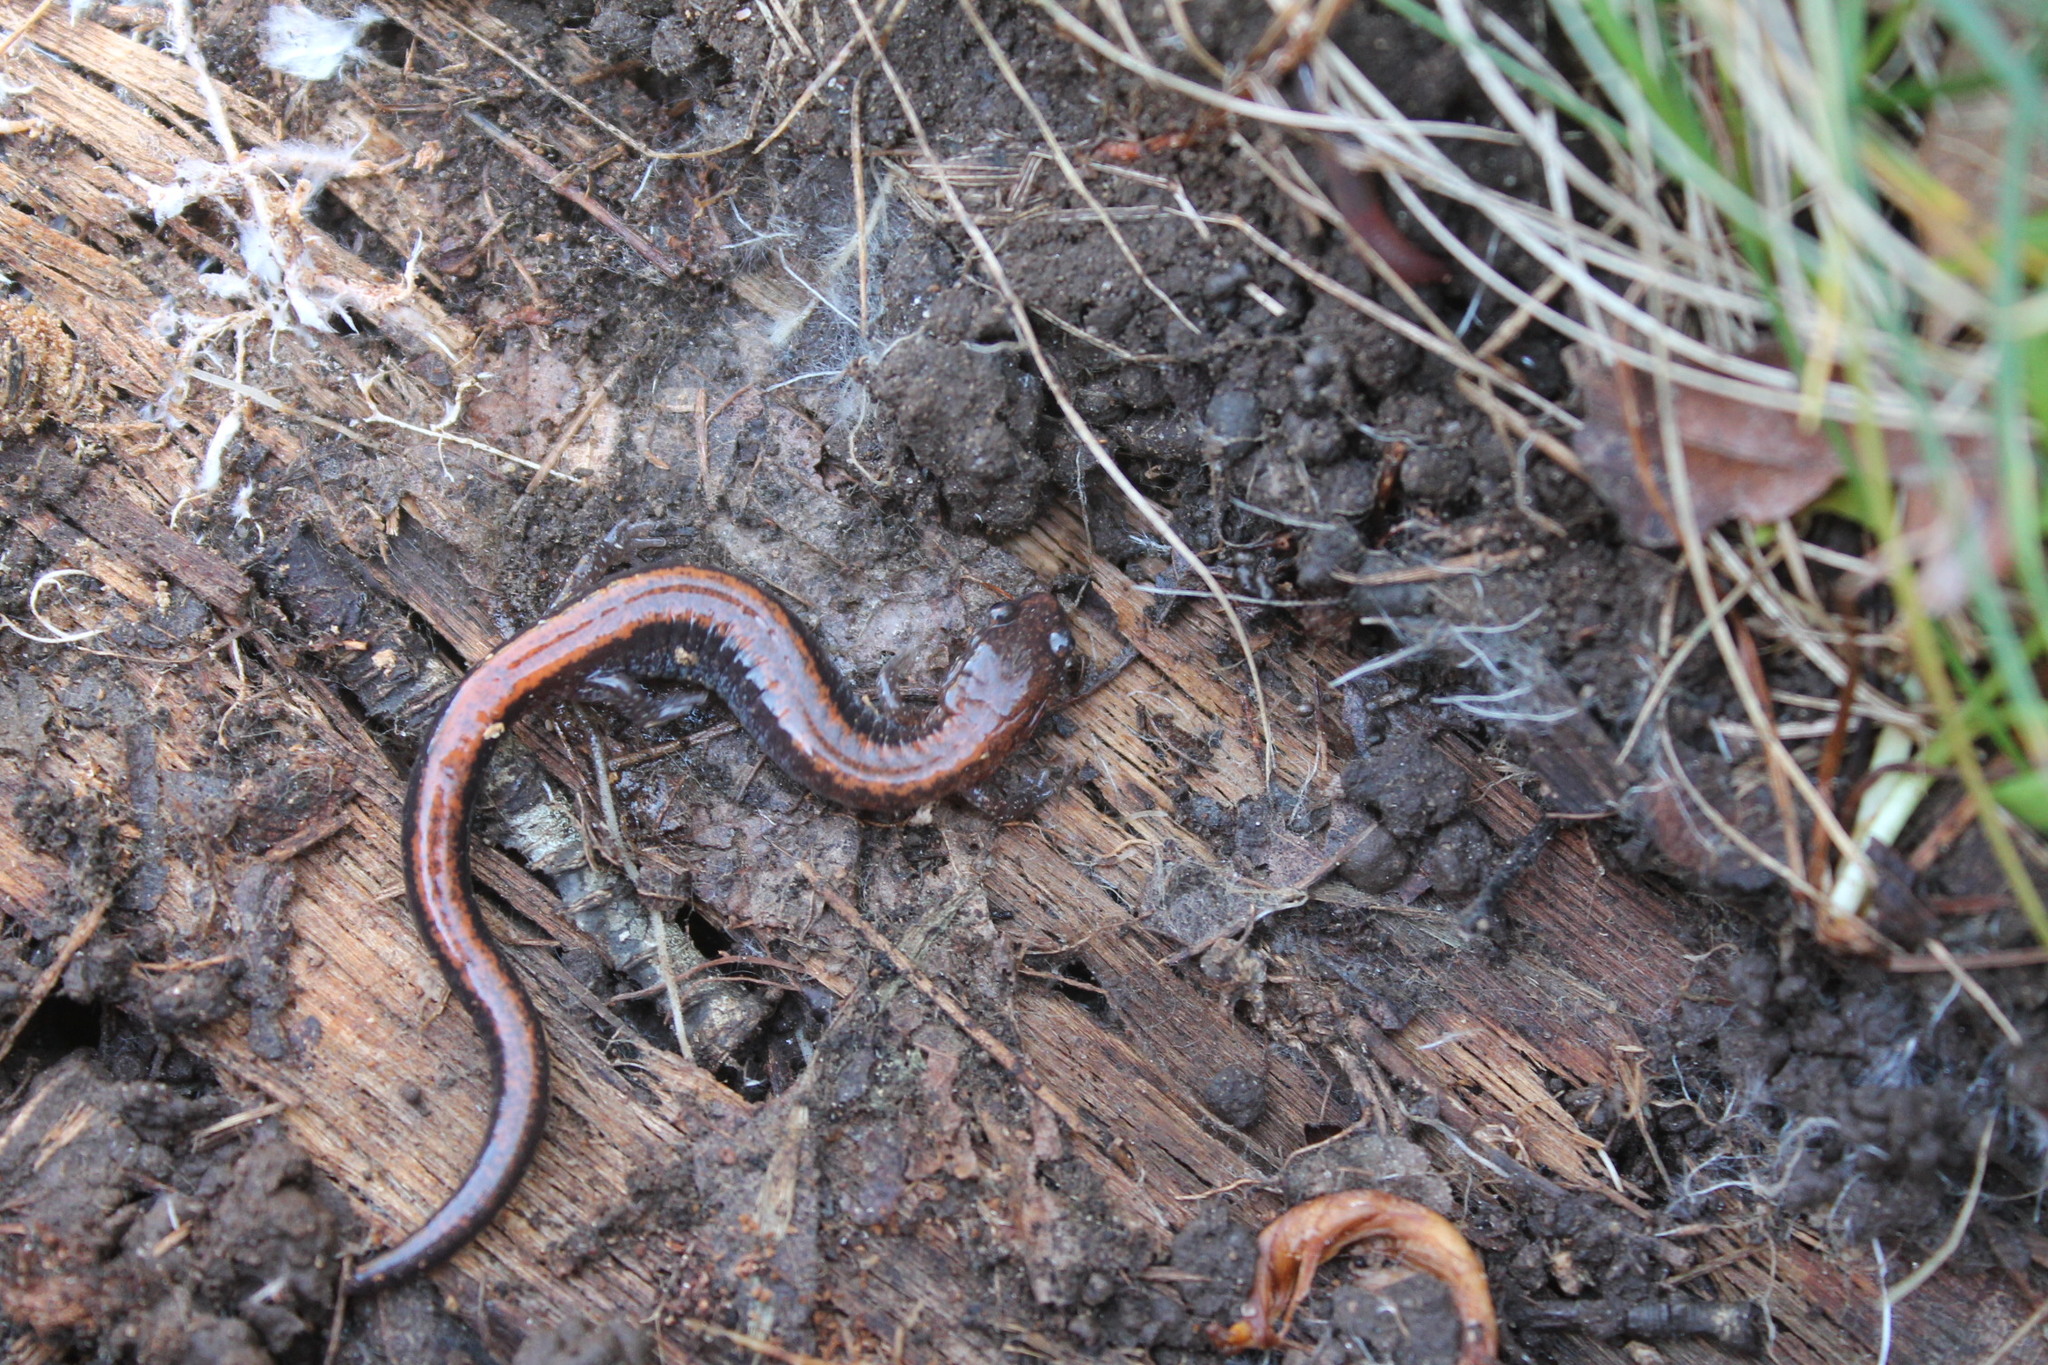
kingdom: Animalia
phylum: Chordata
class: Amphibia
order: Caudata
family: Plethodontidae
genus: Plethodon
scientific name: Plethodon cinereus
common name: Redback salamander
